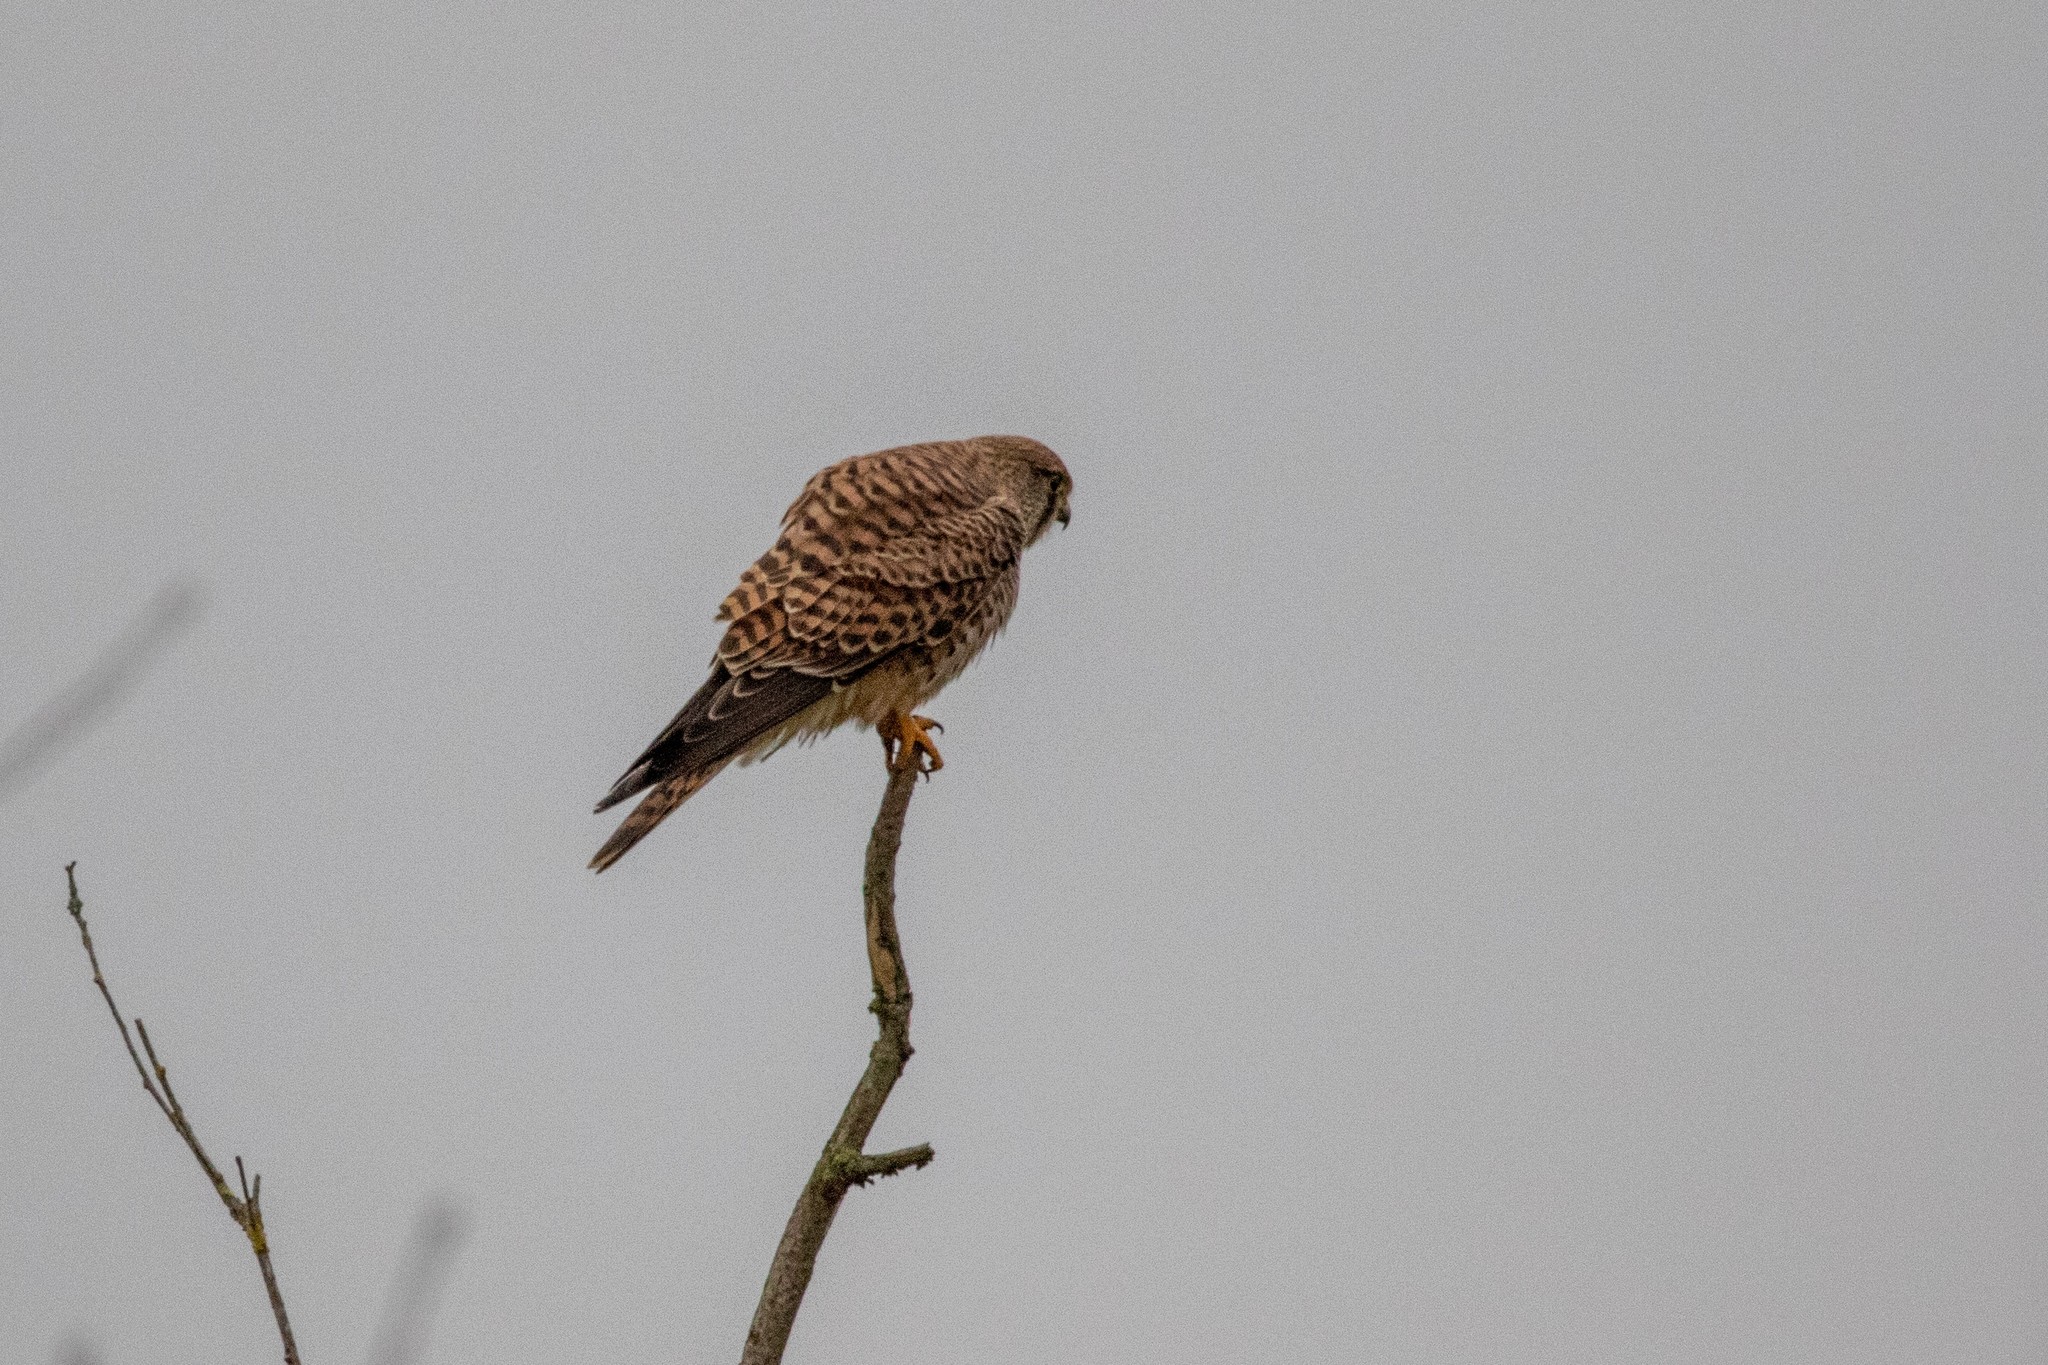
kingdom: Animalia
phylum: Chordata
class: Aves
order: Falconiformes
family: Falconidae
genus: Falco
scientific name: Falco tinnunculus
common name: Common kestrel
